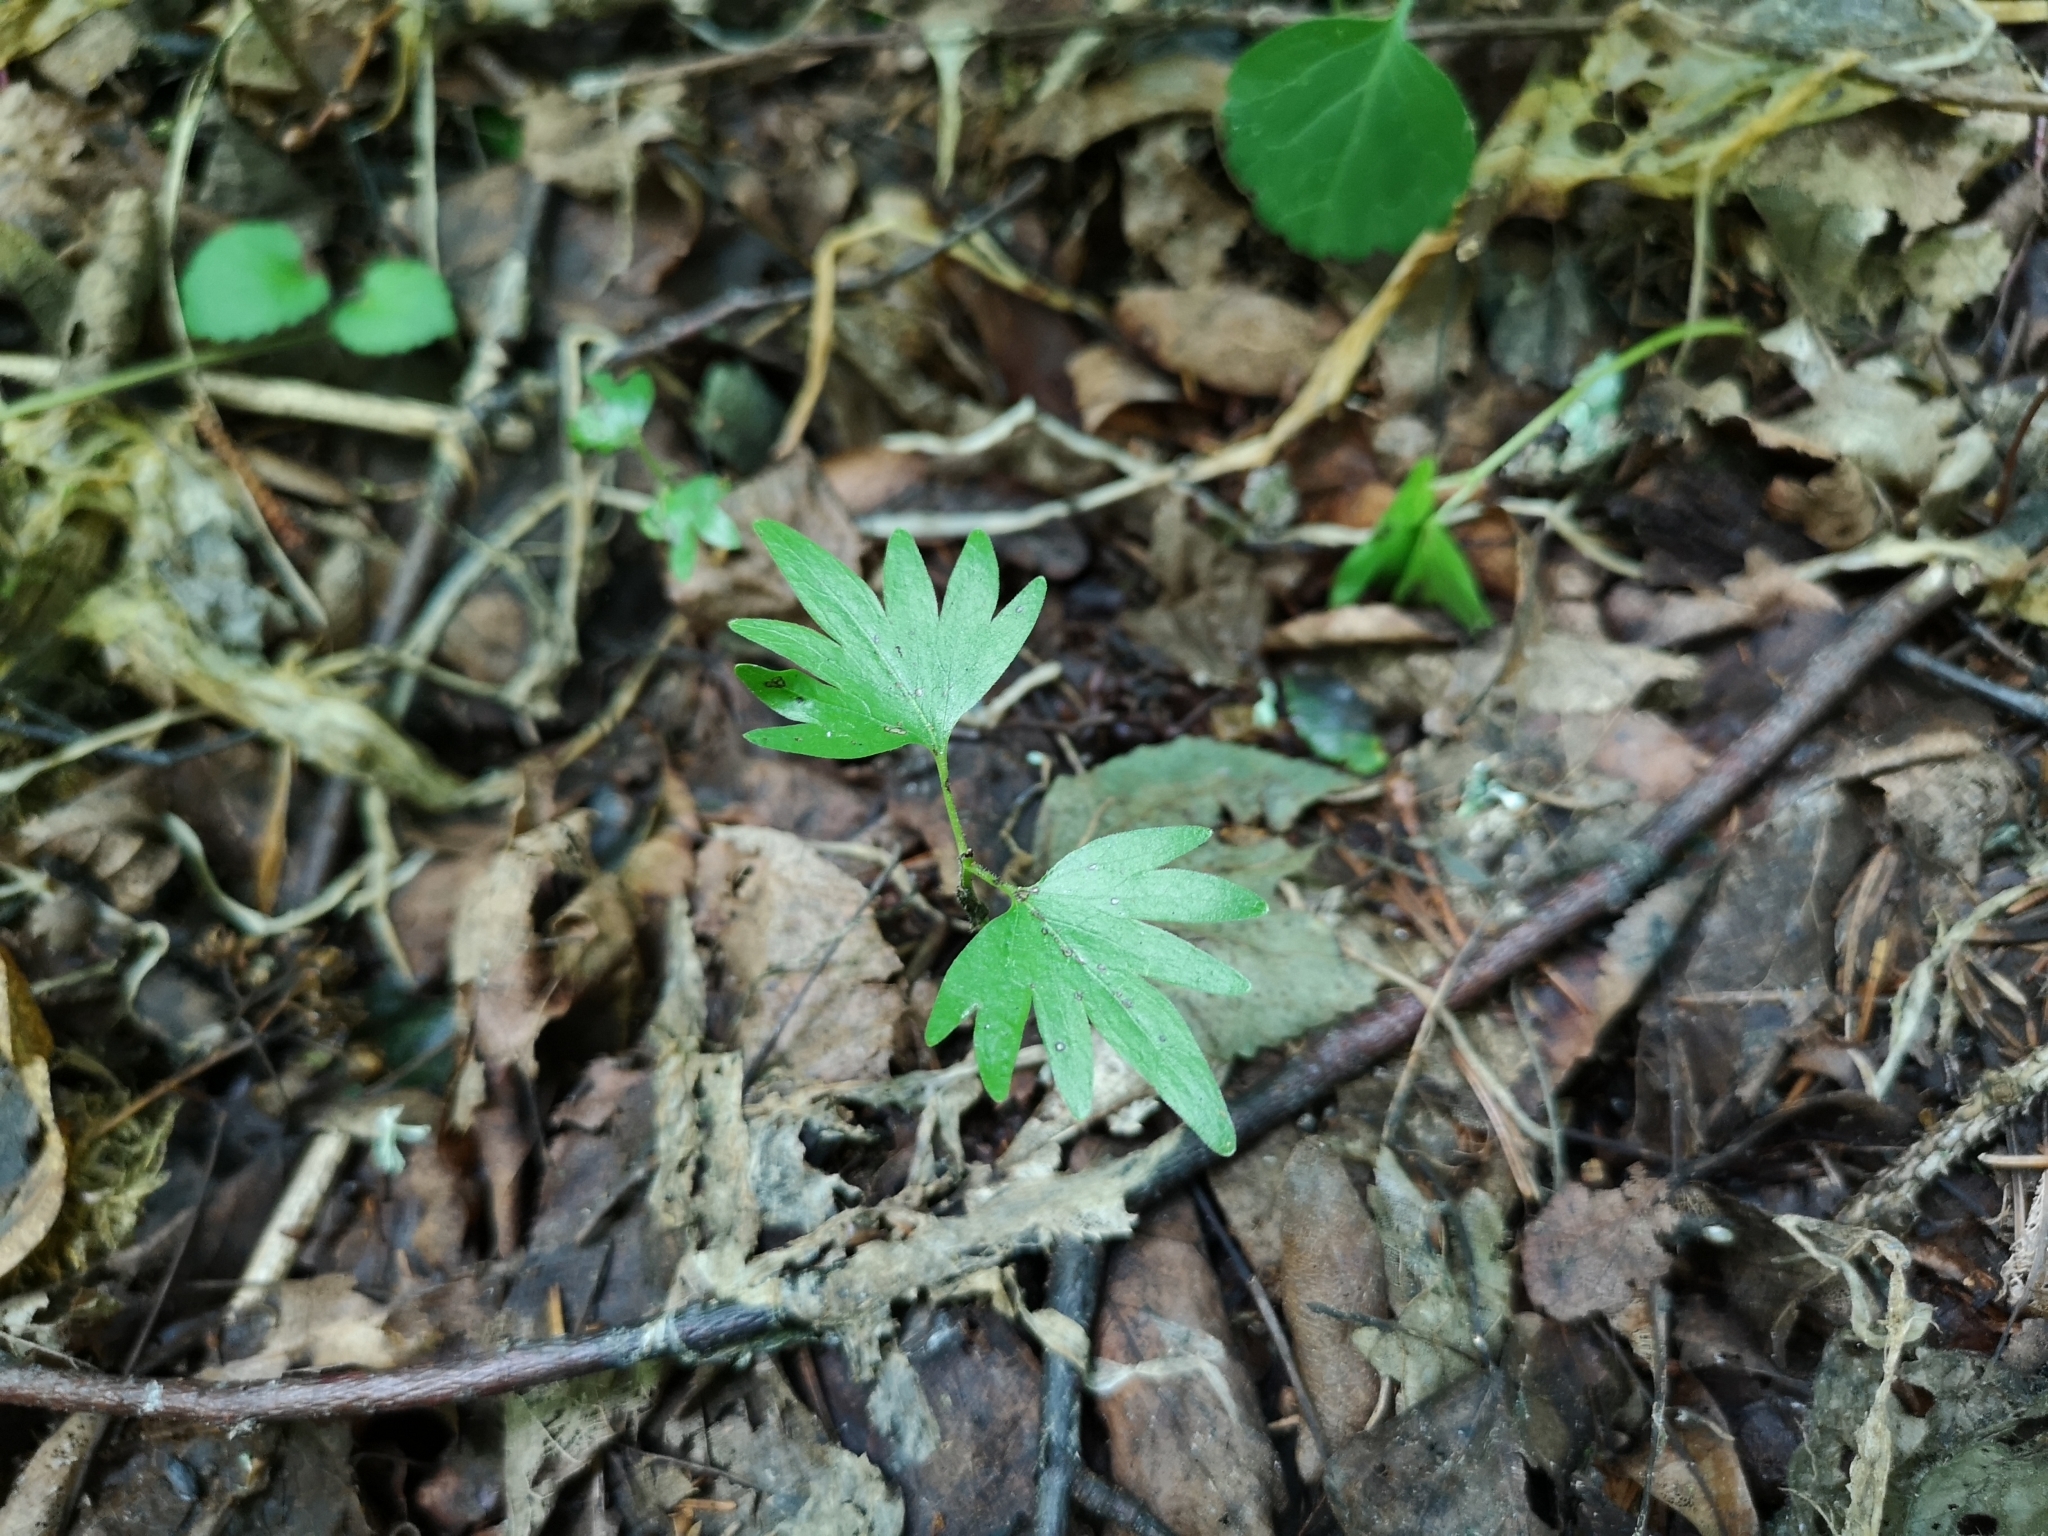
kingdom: Plantae
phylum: Tracheophyta
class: Magnoliopsida
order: Malvales
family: Malvaceae
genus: Tilia
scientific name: Tilia cordata
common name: Small-leaved lime
